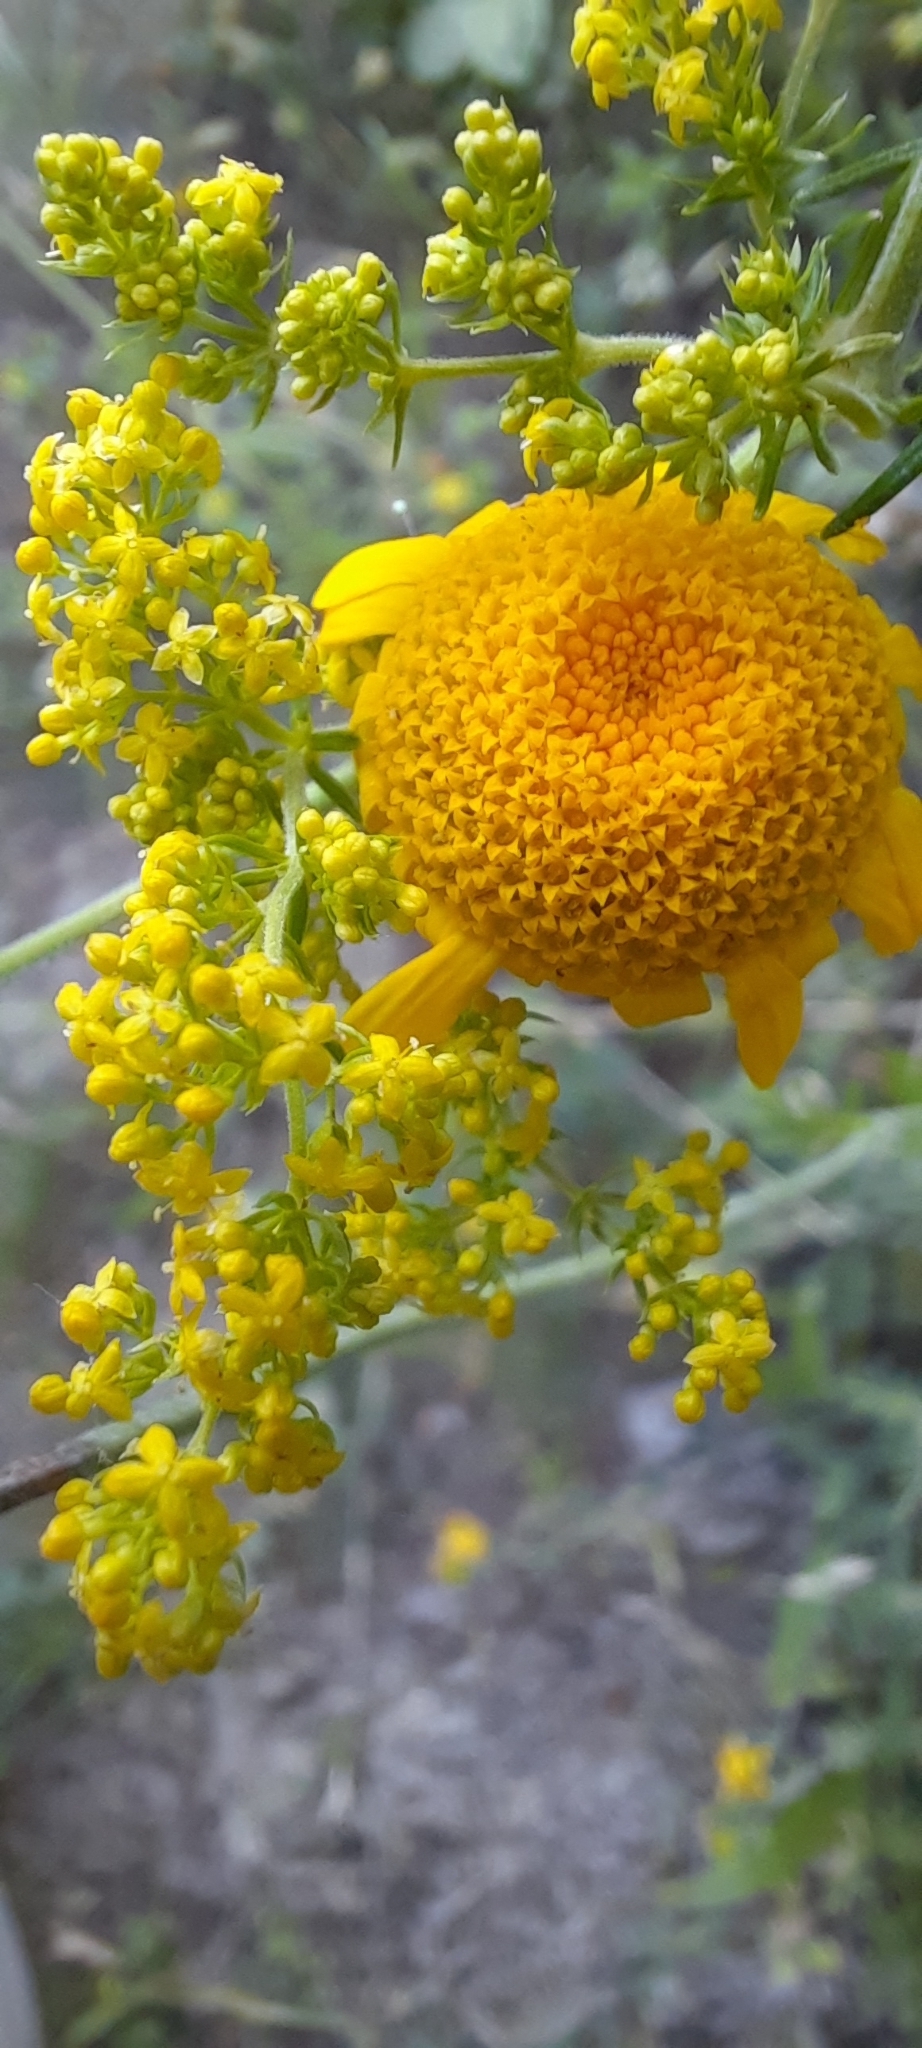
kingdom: Plantae
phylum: Tracheophyta
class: Magnoliopsida
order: Gentianales
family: Rubiaceae
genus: Galium
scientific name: Galium verum
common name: Lady's bedstraw
